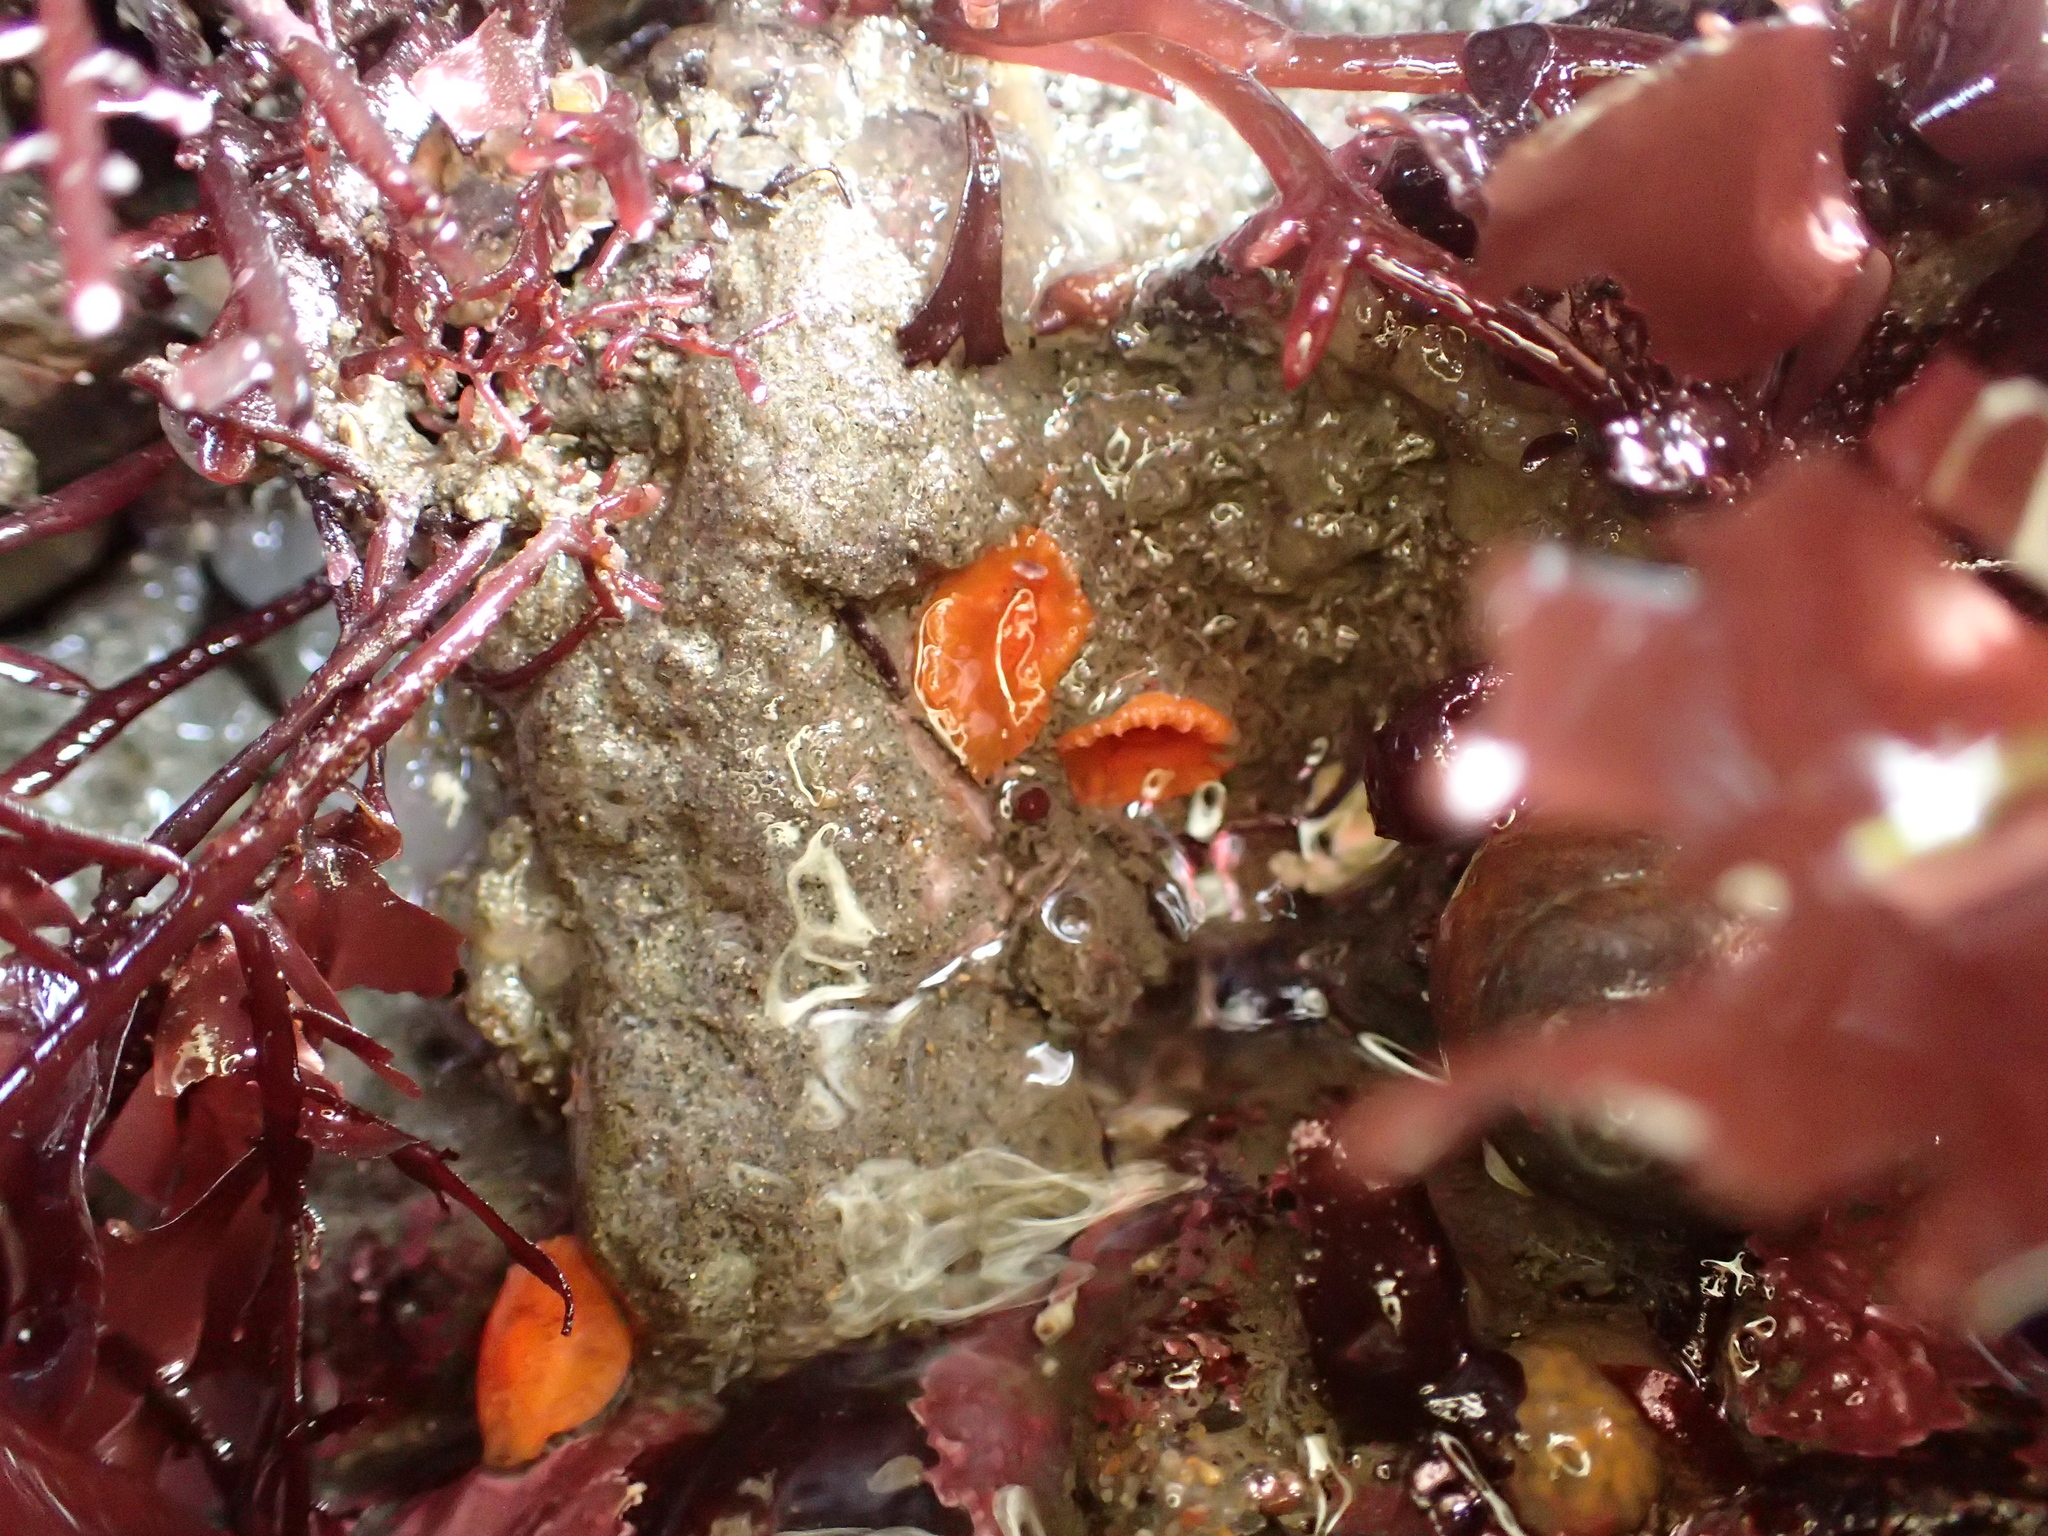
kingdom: Animalia
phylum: Cnidaria
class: Anthozoa
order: Scleractinia
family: Dendrophylliidae
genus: Balanophyllia
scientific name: Balanophyllia elegans
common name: Orange stony coral
